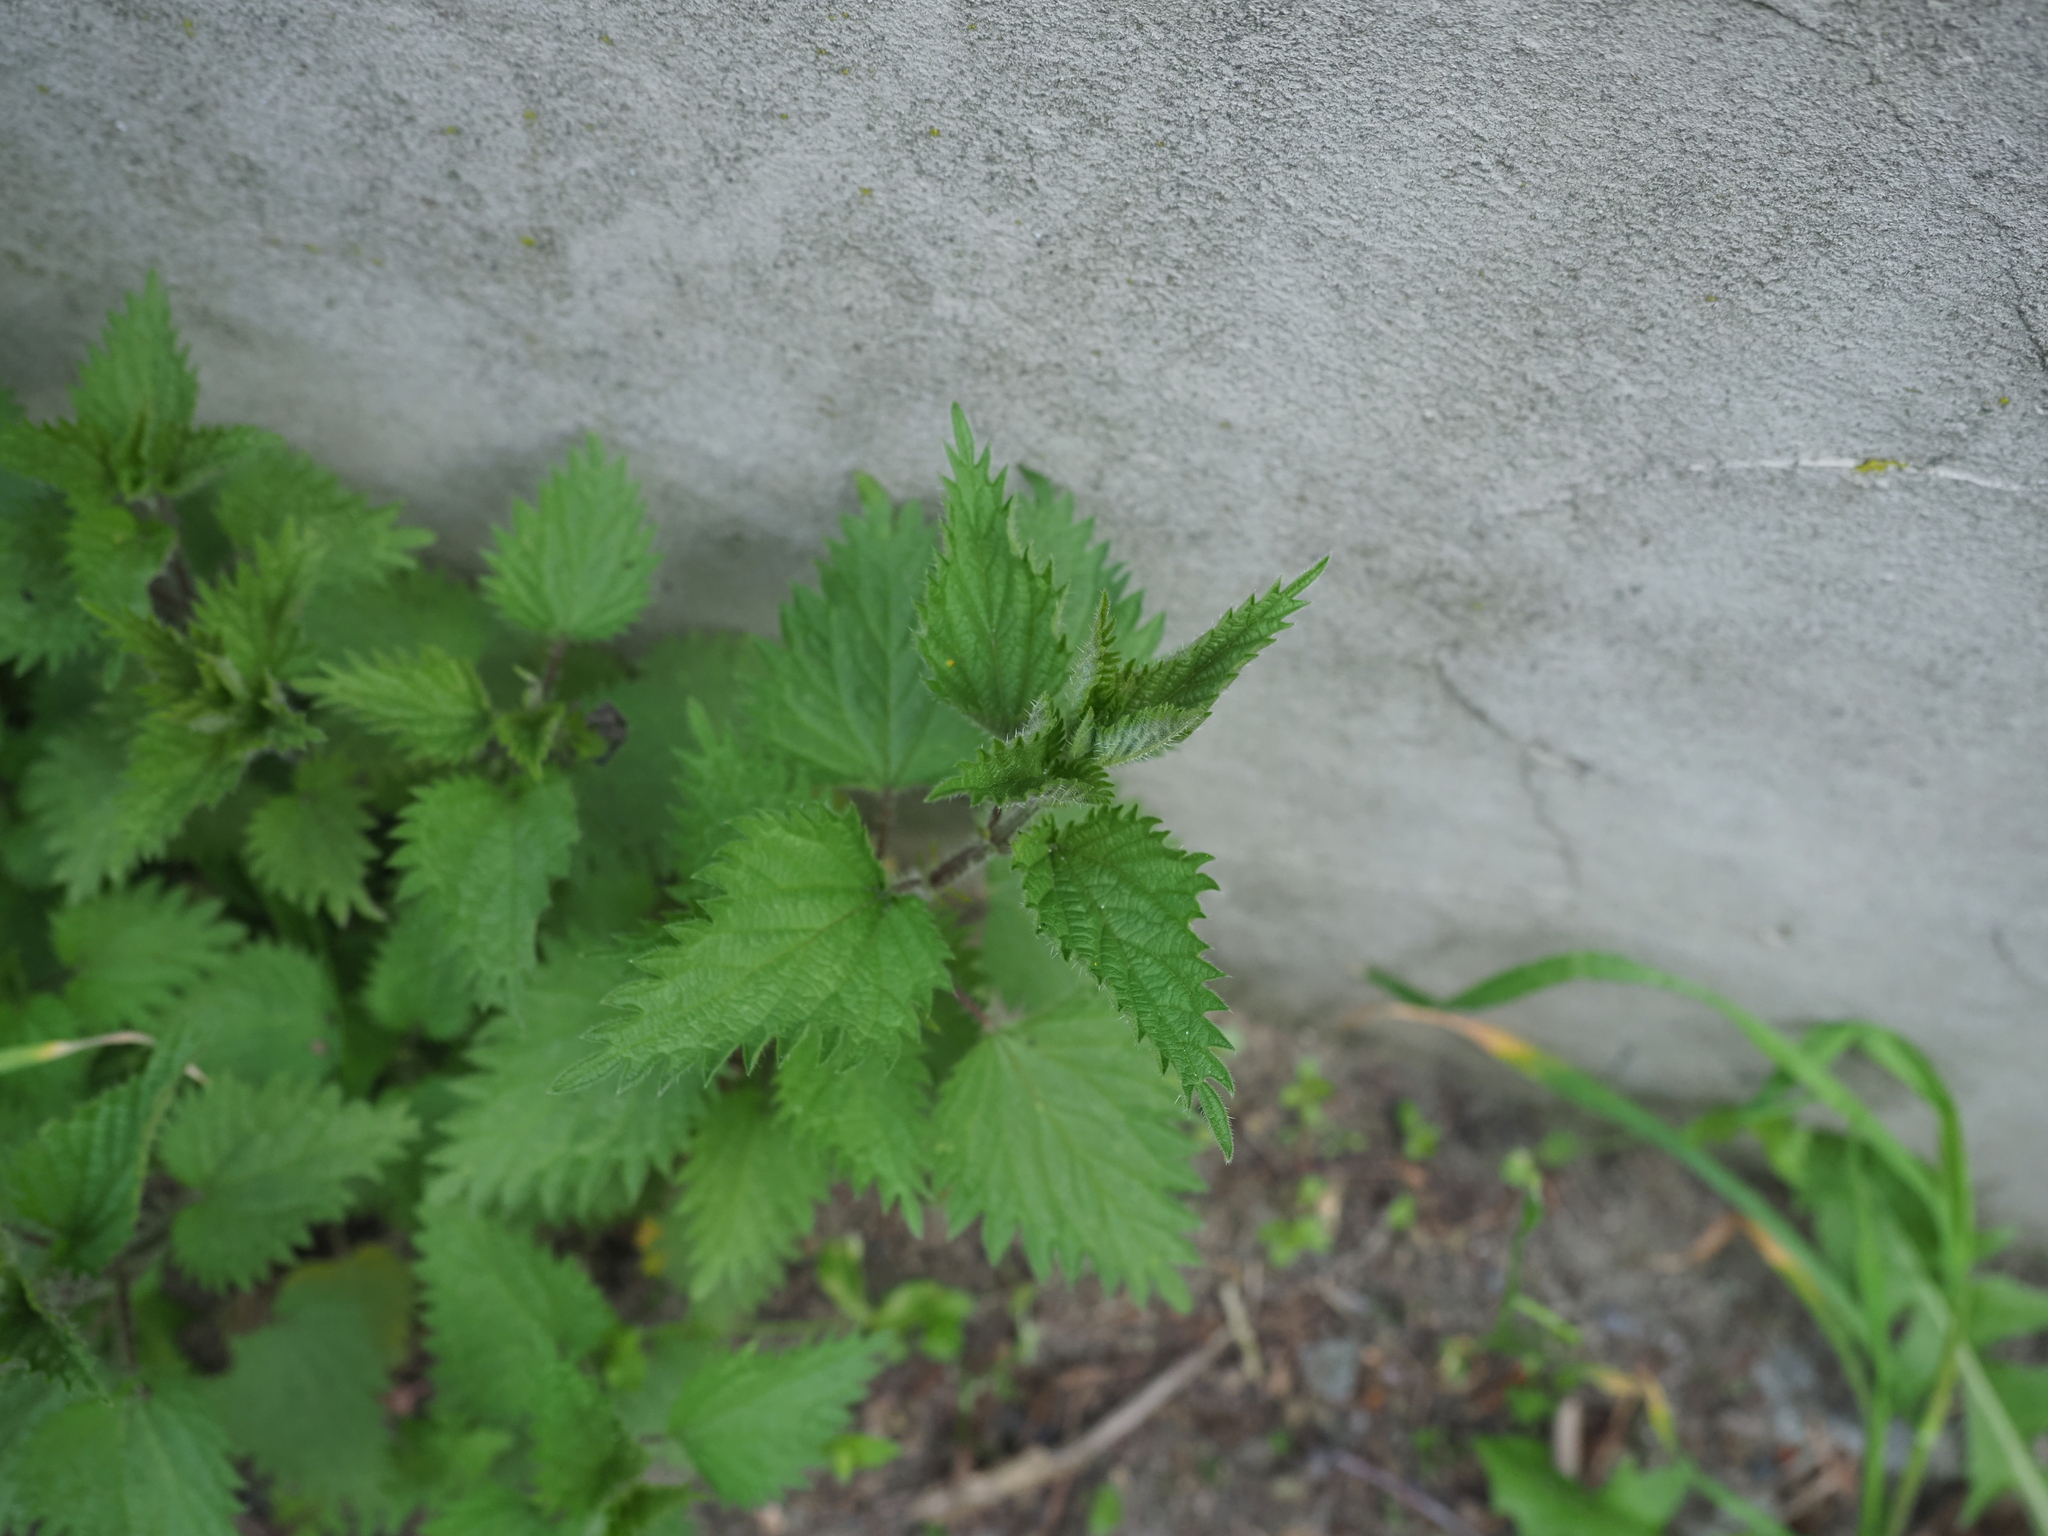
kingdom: Plantae
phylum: Tracheophyta
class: Magnoliopsida
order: Rosales
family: Urticaceae
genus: Urtica
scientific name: Urtica dioica
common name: Common nettle
